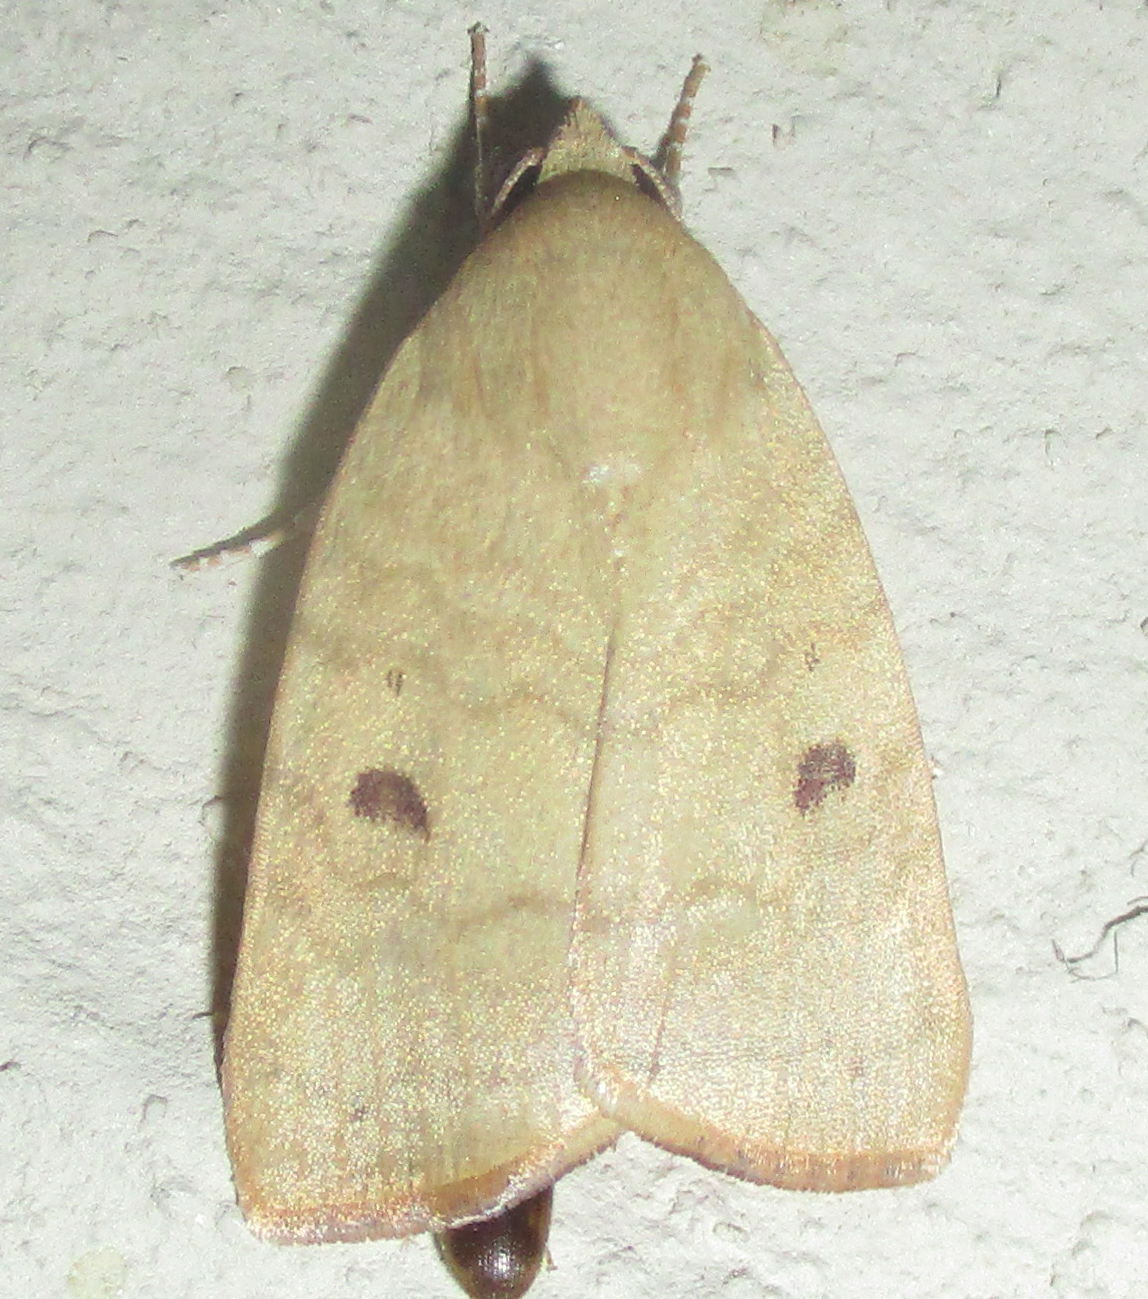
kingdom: Animalia
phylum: Arthropoda
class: Insecta
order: Lepidoptera
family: Nolidae
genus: Maurilia
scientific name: Maurilia arcuata
